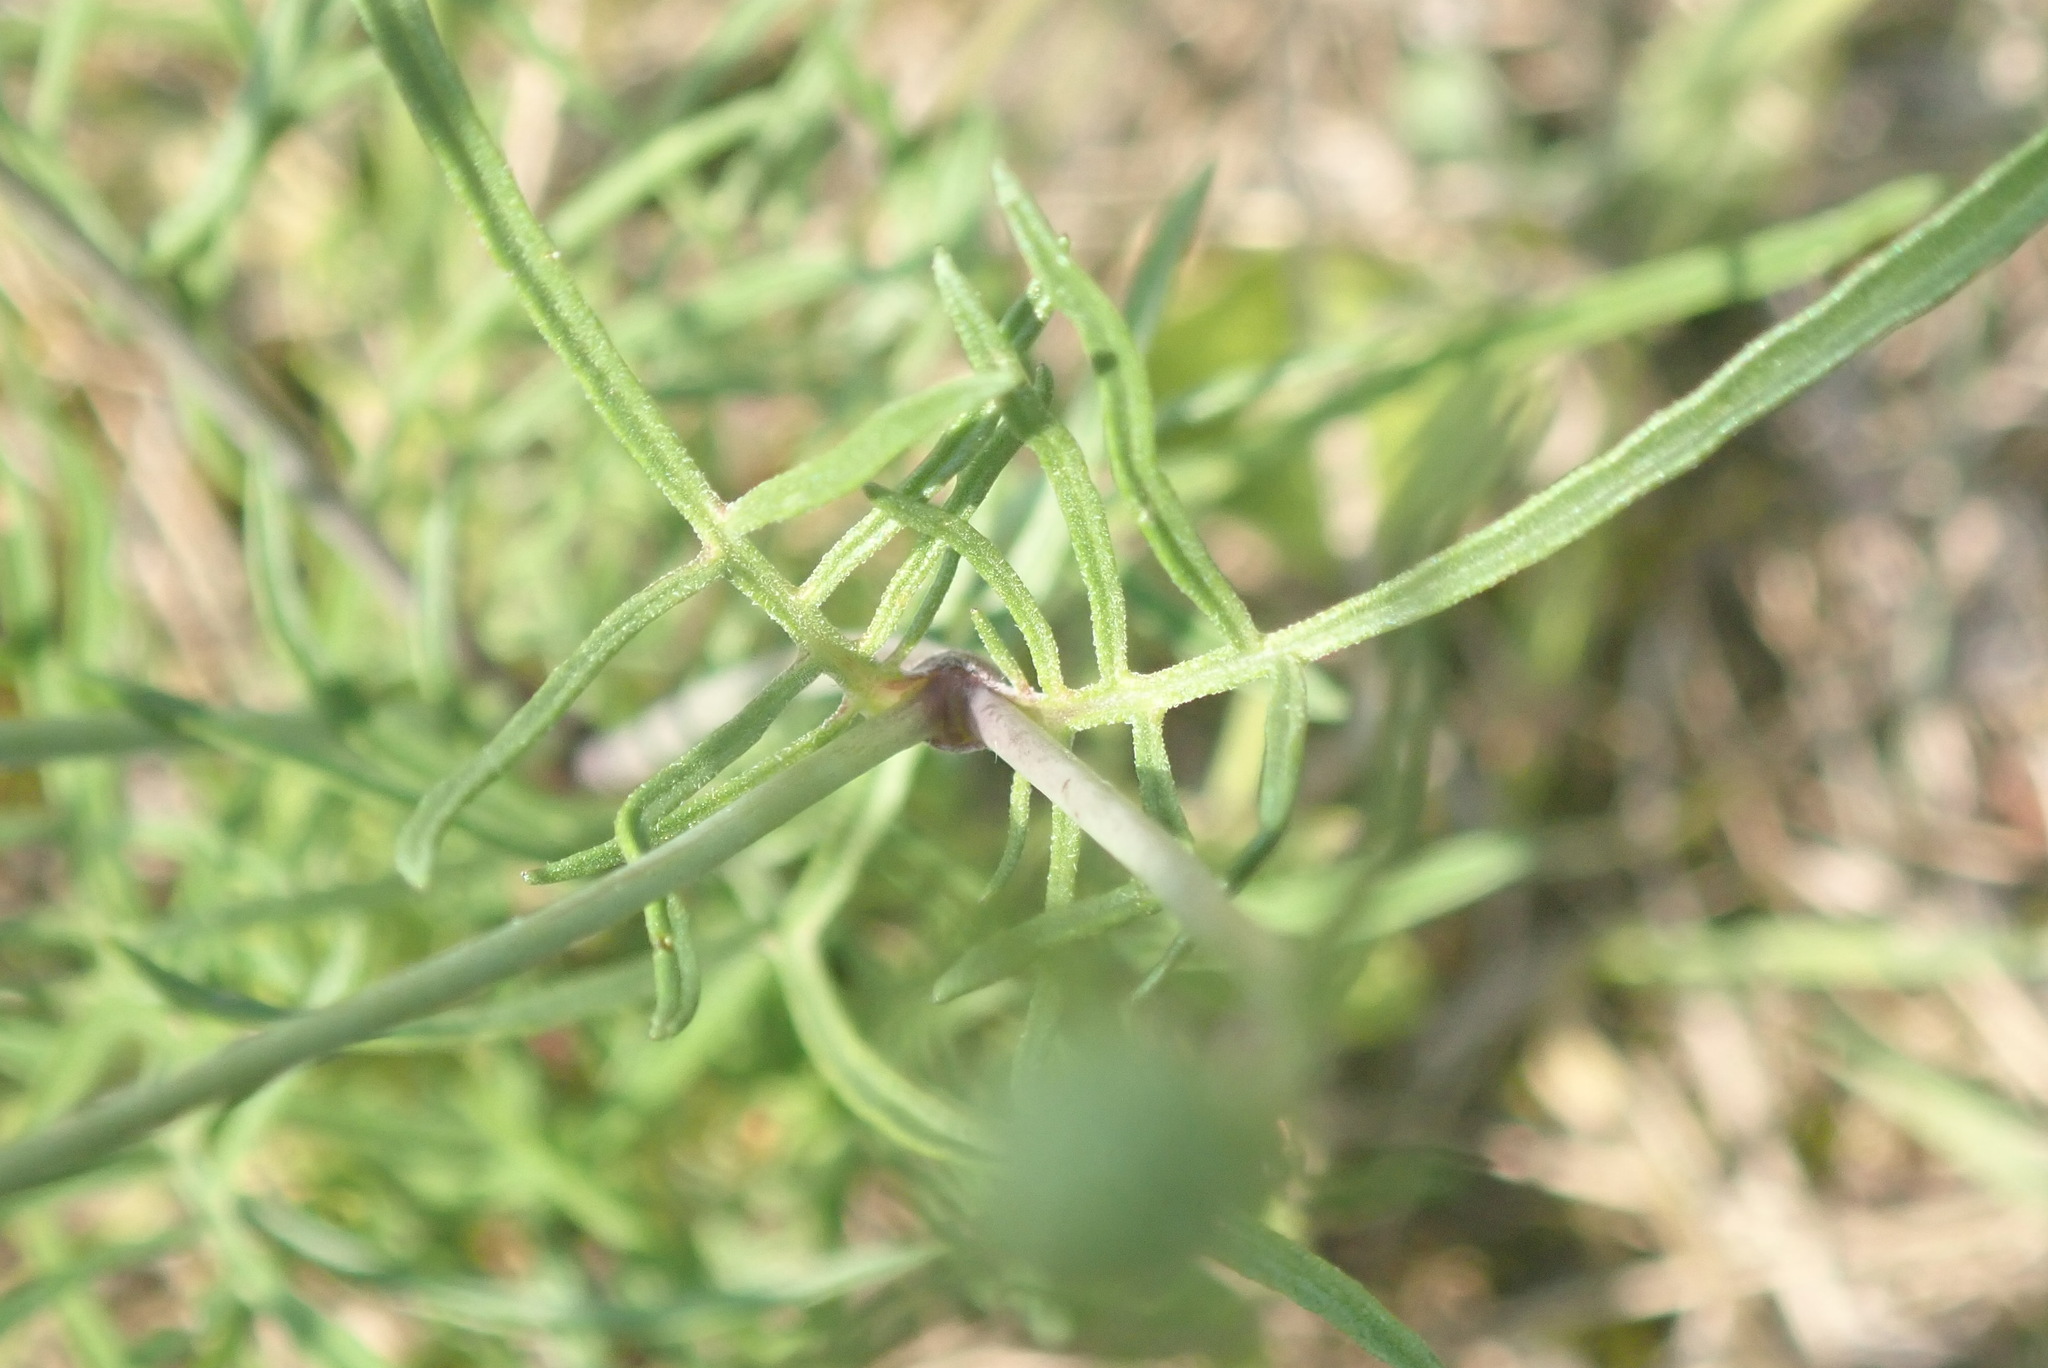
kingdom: Plantae
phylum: Tracheophyta
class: Magnoliopsida
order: Dipsacales
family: Caprifoliaceae
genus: Scabiosa
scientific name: Scabiosa ochroleuca
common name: Cream pincushions
